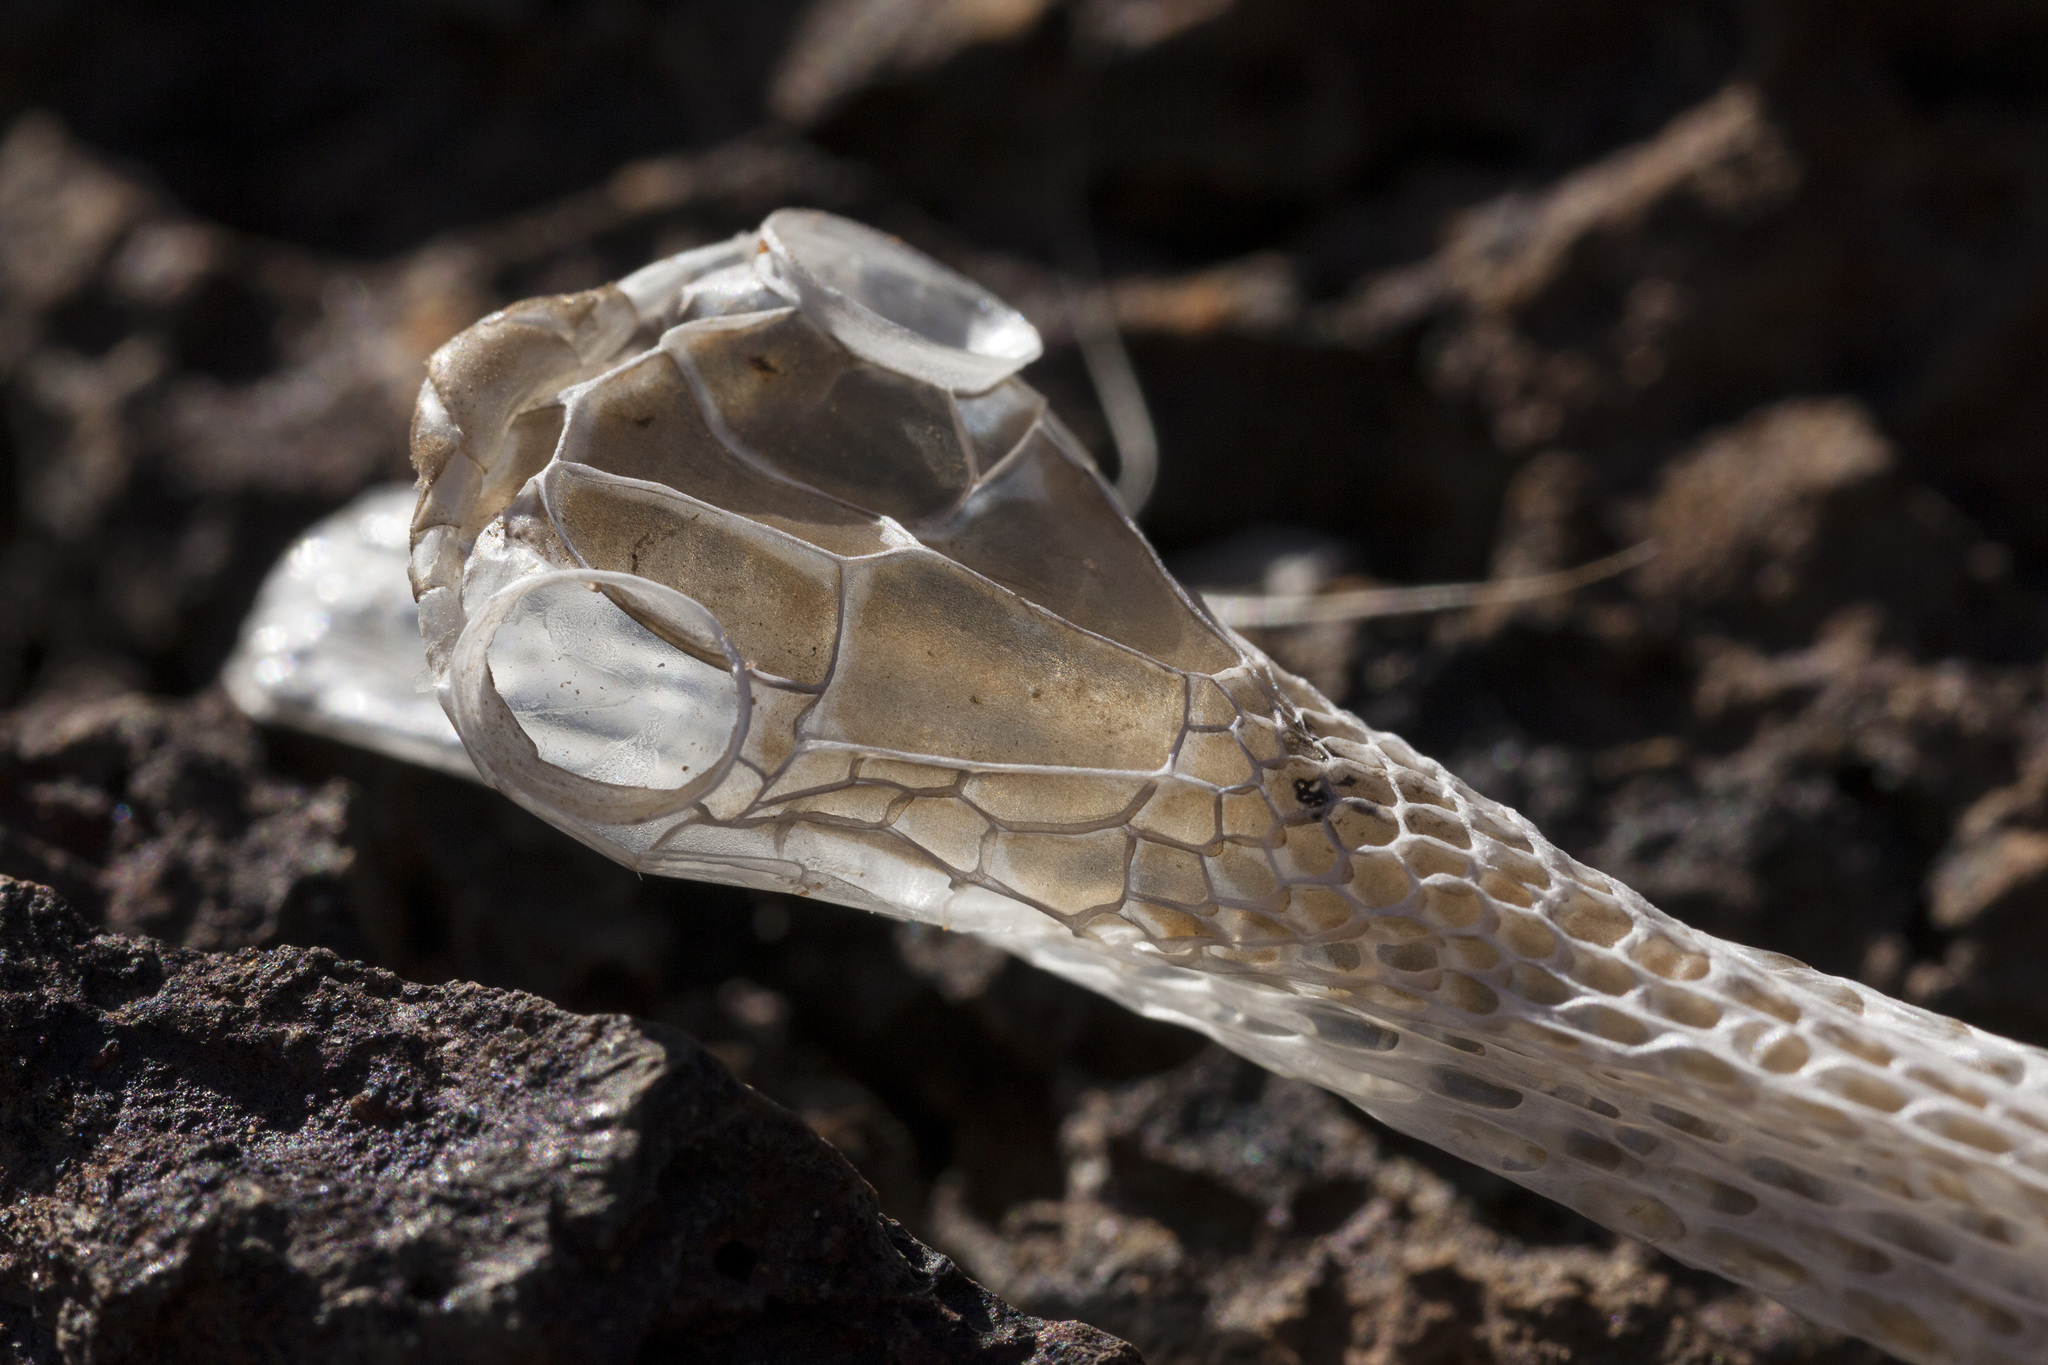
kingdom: Animalia
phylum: Chordata
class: Squamata
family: Colubridae
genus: Masticophis
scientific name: Masticophis taeniatus
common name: Striped whipsnake
